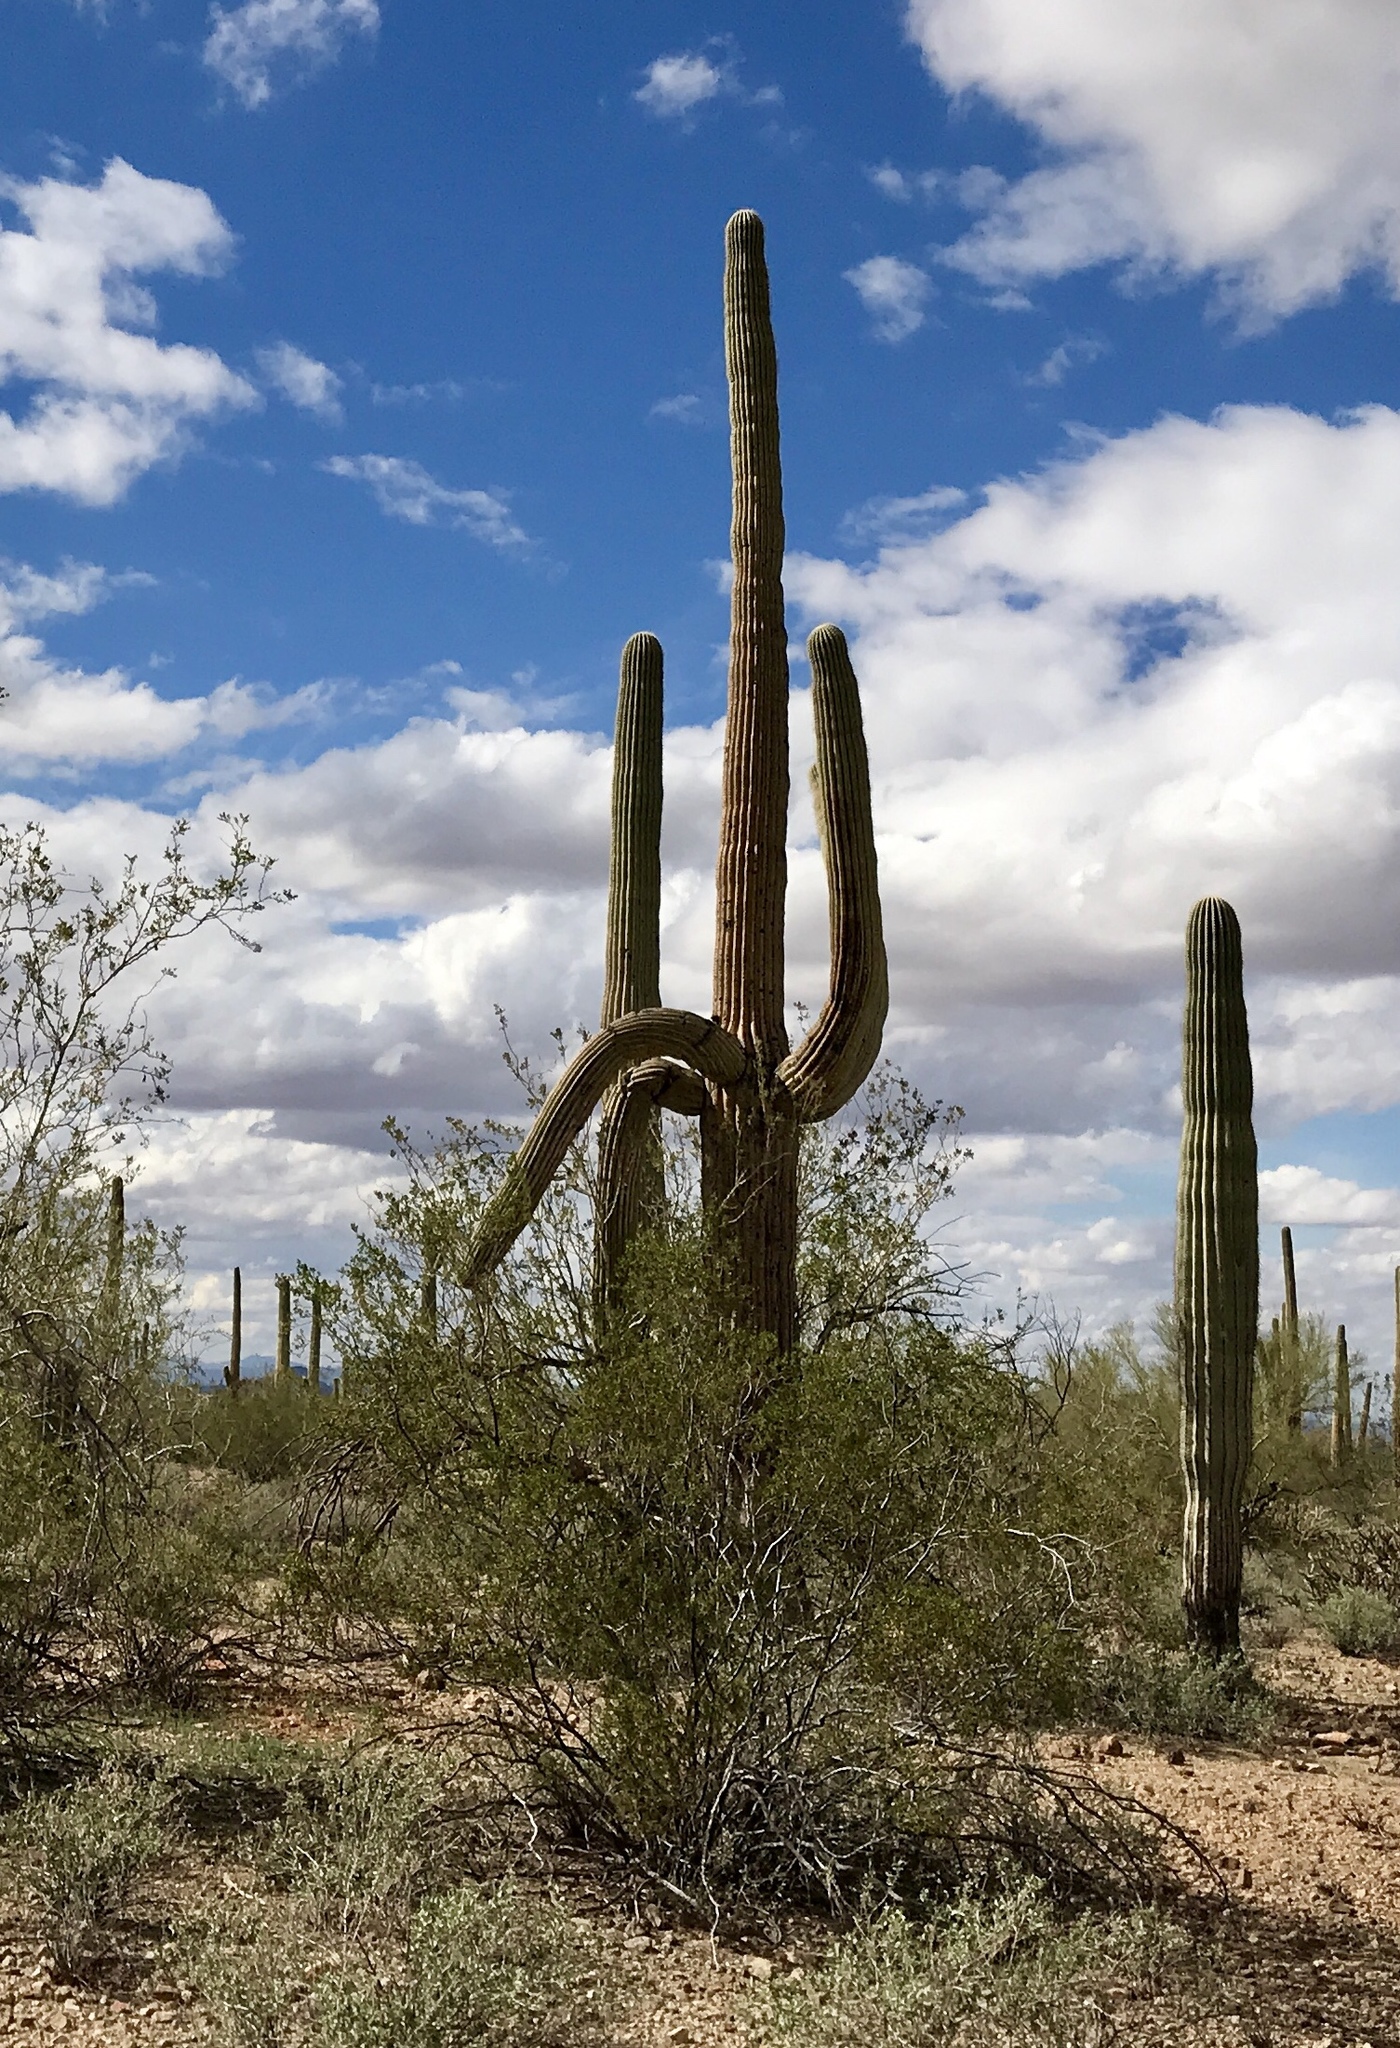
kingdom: Plantae
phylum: Tracheophyta
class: Magnoliopsida
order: Caryophyllales
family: Cactaceae
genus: Carnegiea
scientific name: Carnegiea gigantea
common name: Saguaro
